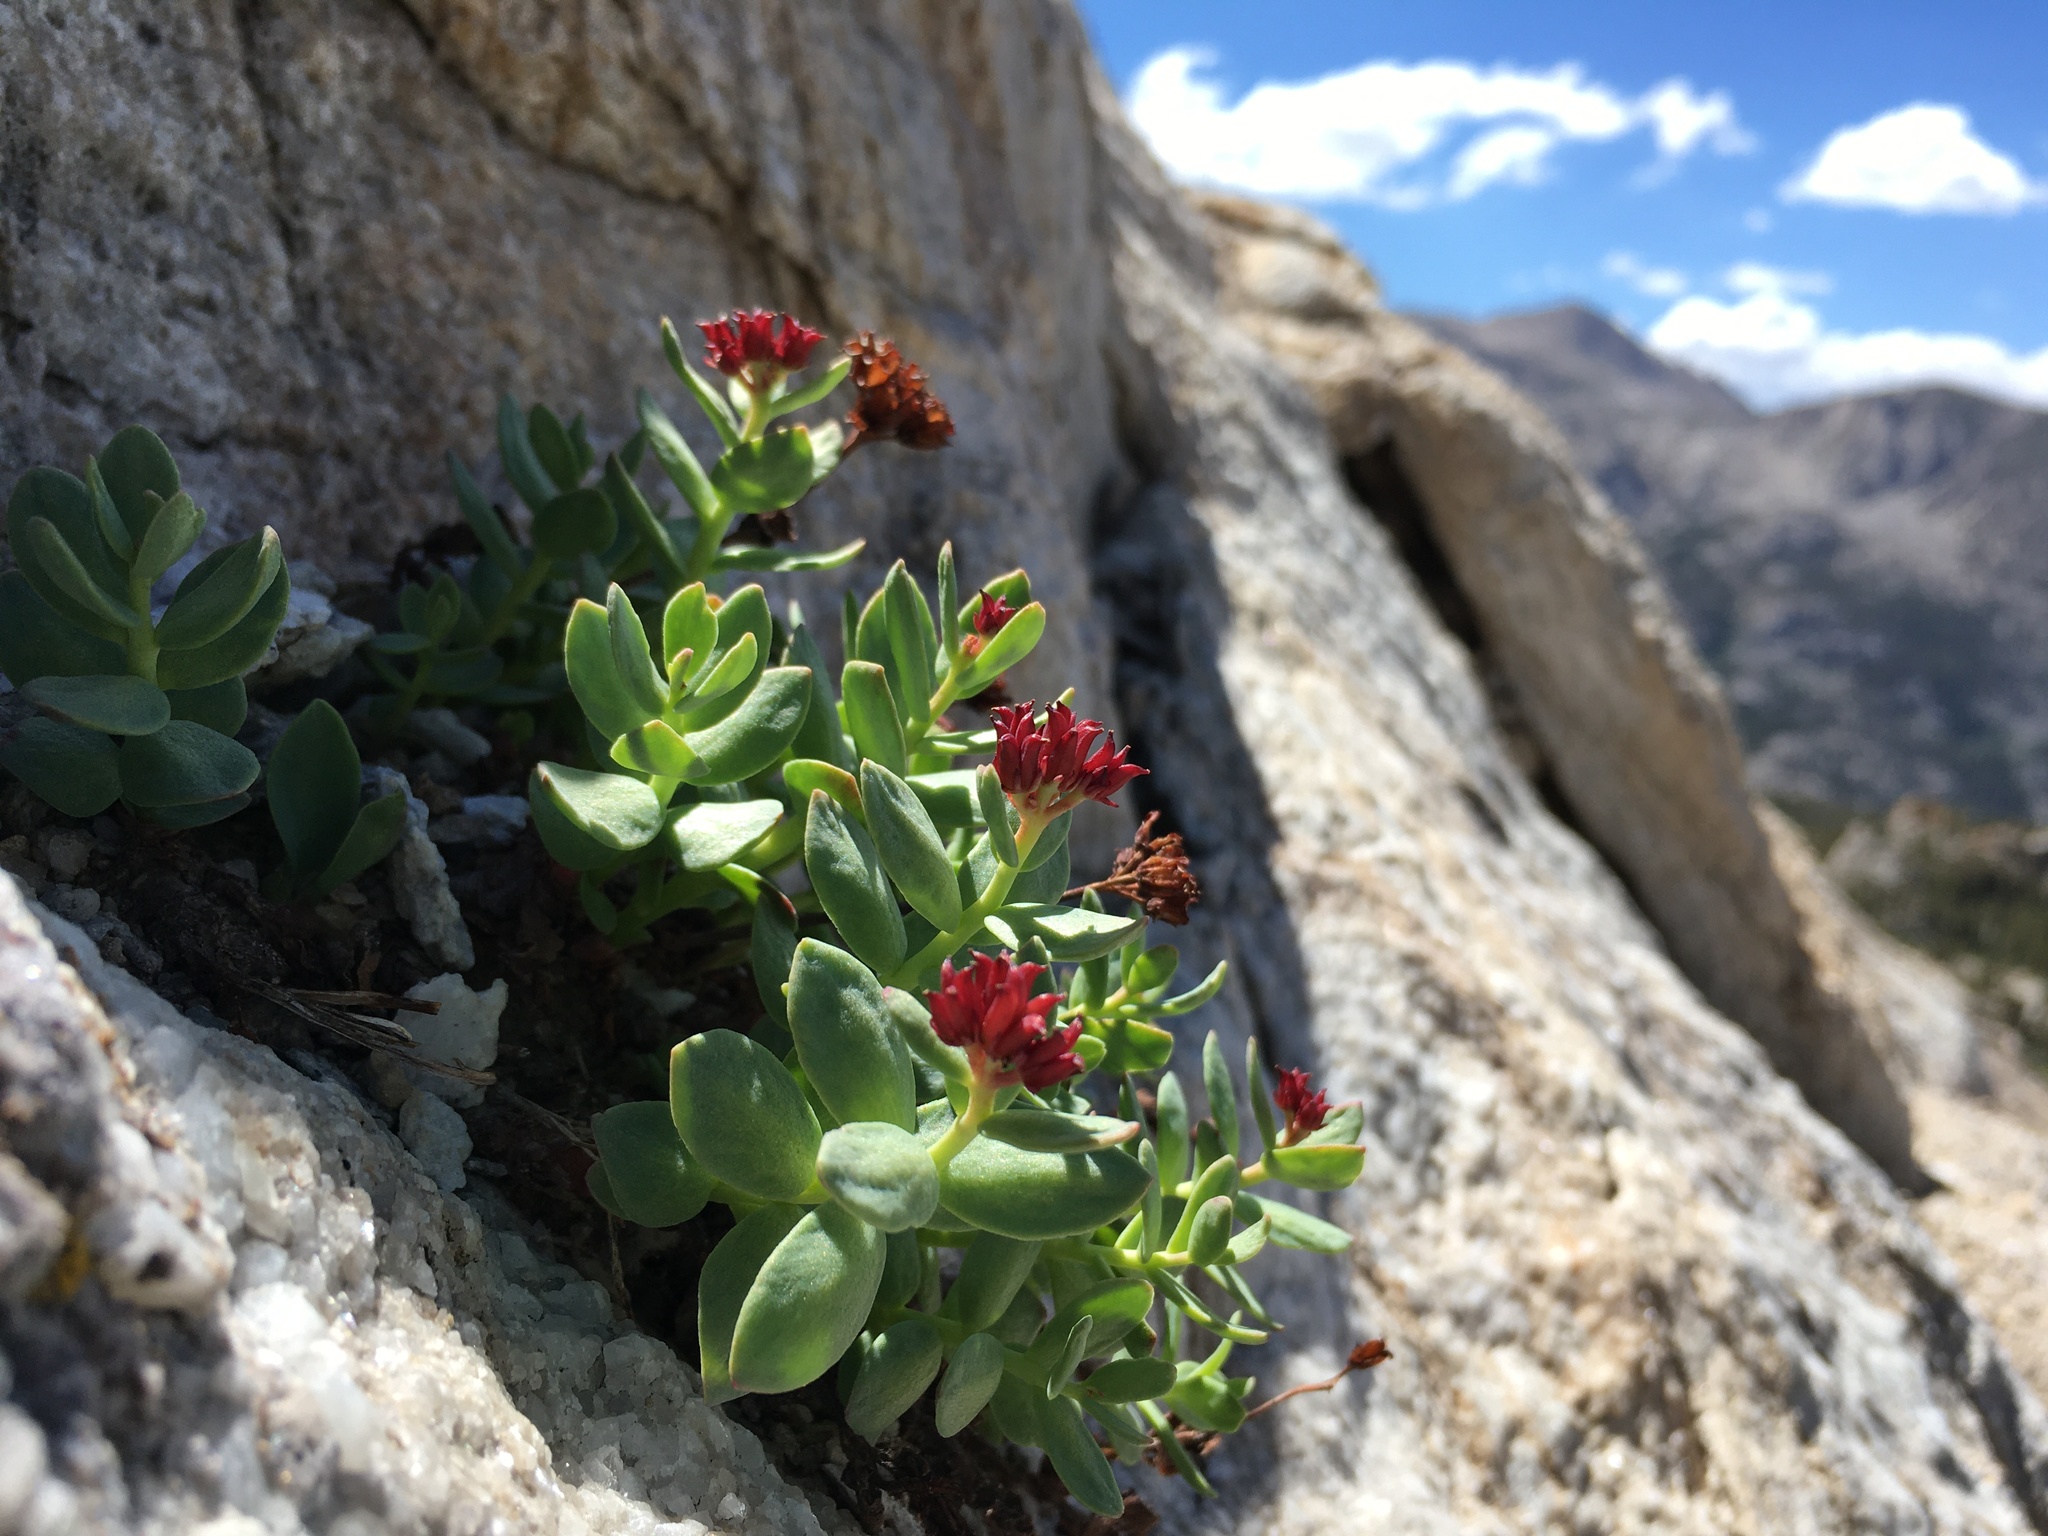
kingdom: Plantae
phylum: Tracheophyta
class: Magnoliopsida
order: Saxifragales
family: Crassulaceae
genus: Rhodiola
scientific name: Rhodiola integrifolia
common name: Western roseroot
